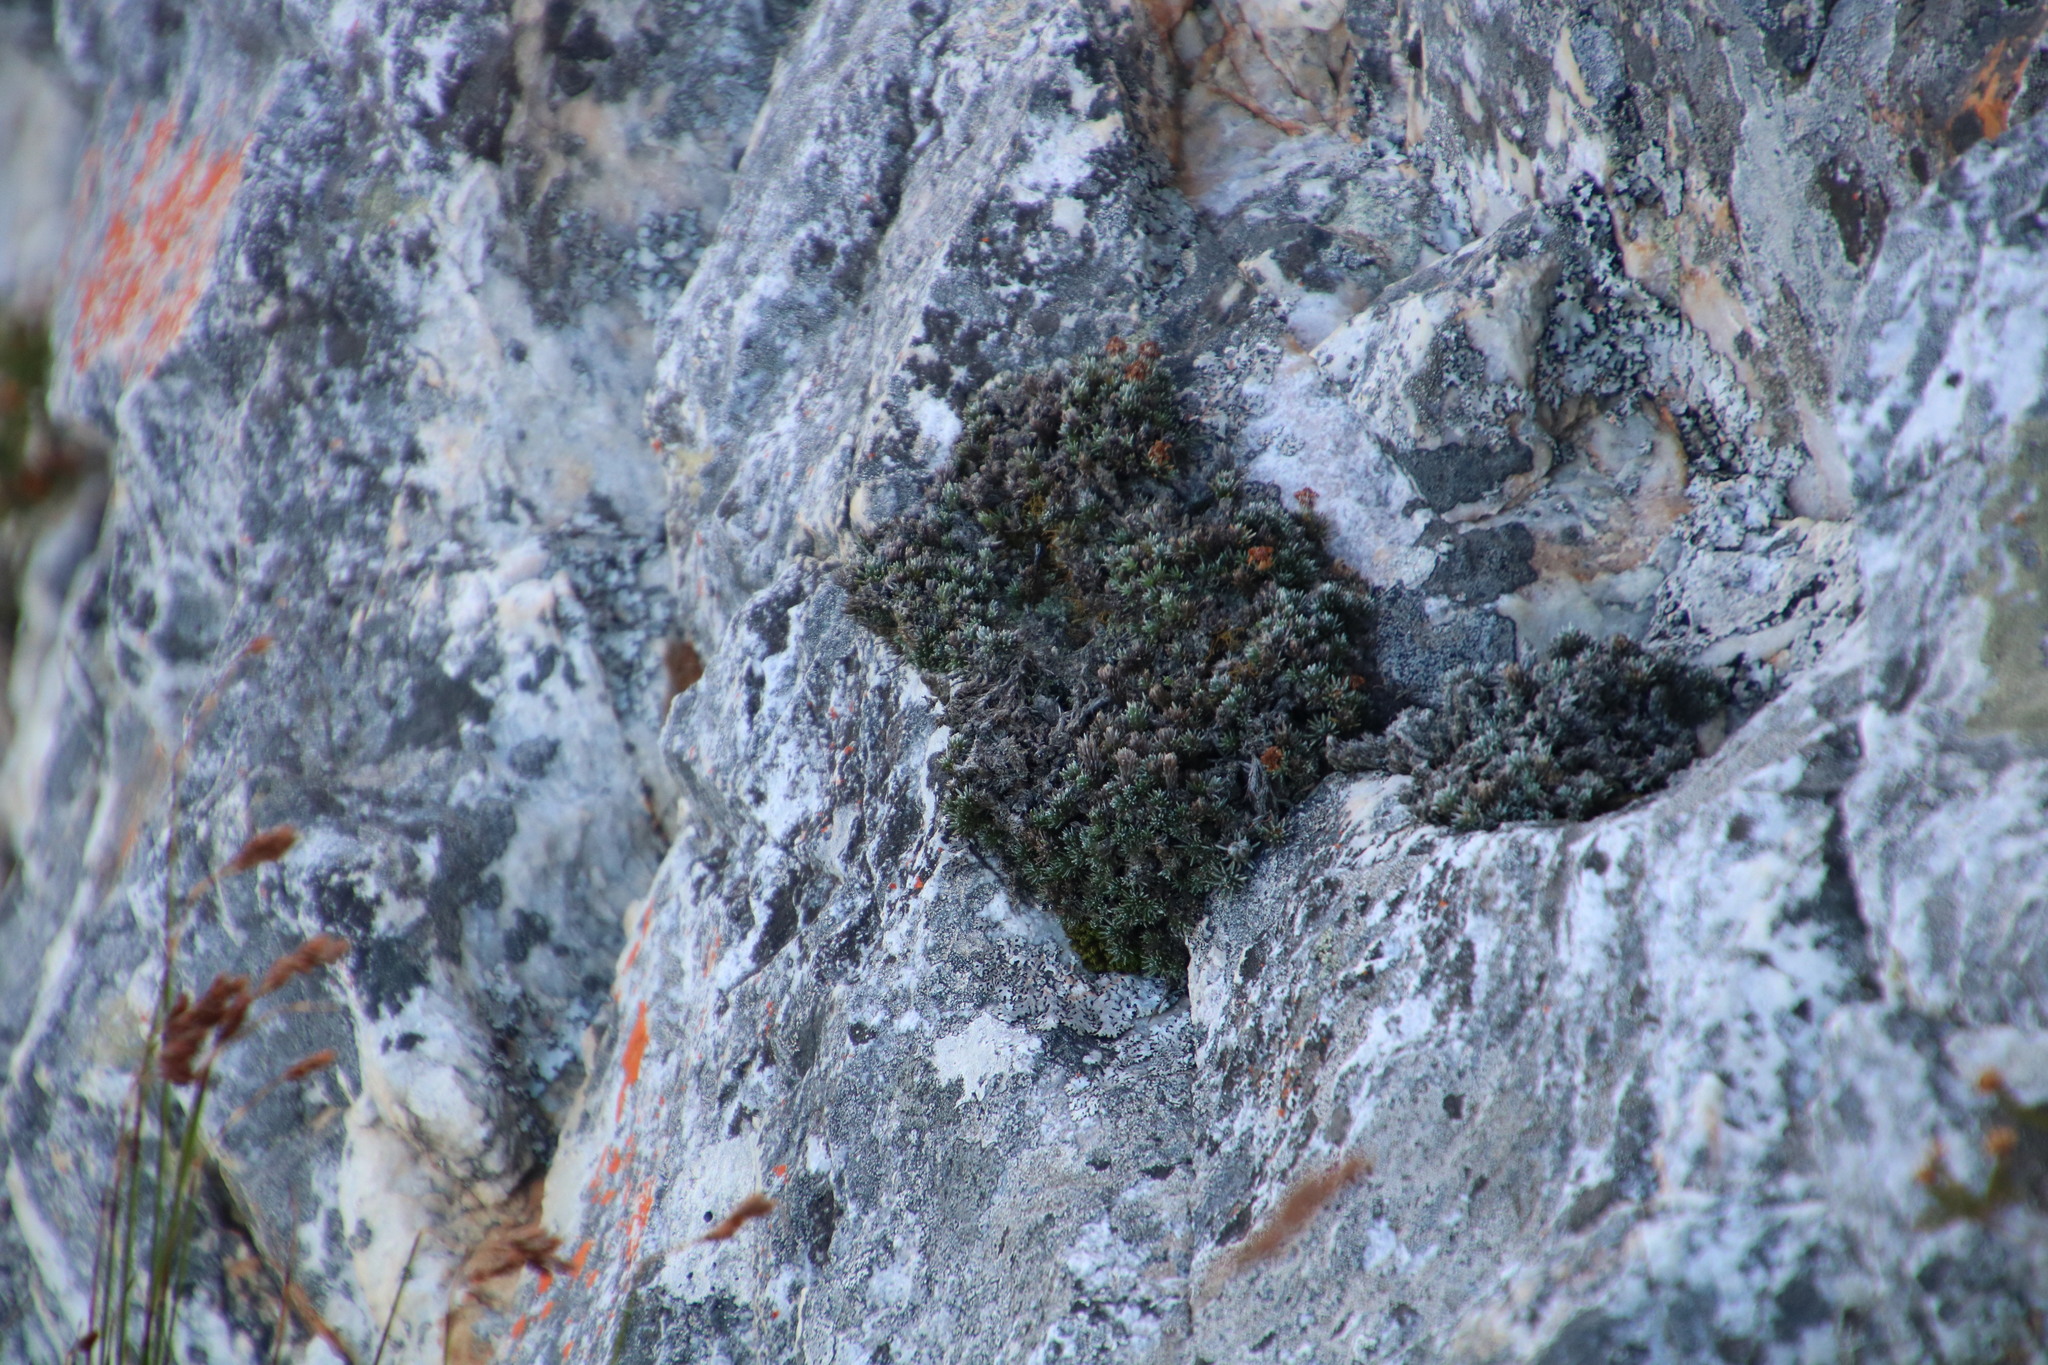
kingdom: Plantae
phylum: Tracheophyta
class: Magnoliopsida
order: Asterales
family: Asteraceae
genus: Muscosomorphe
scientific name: Muscosomorphe aretioides
